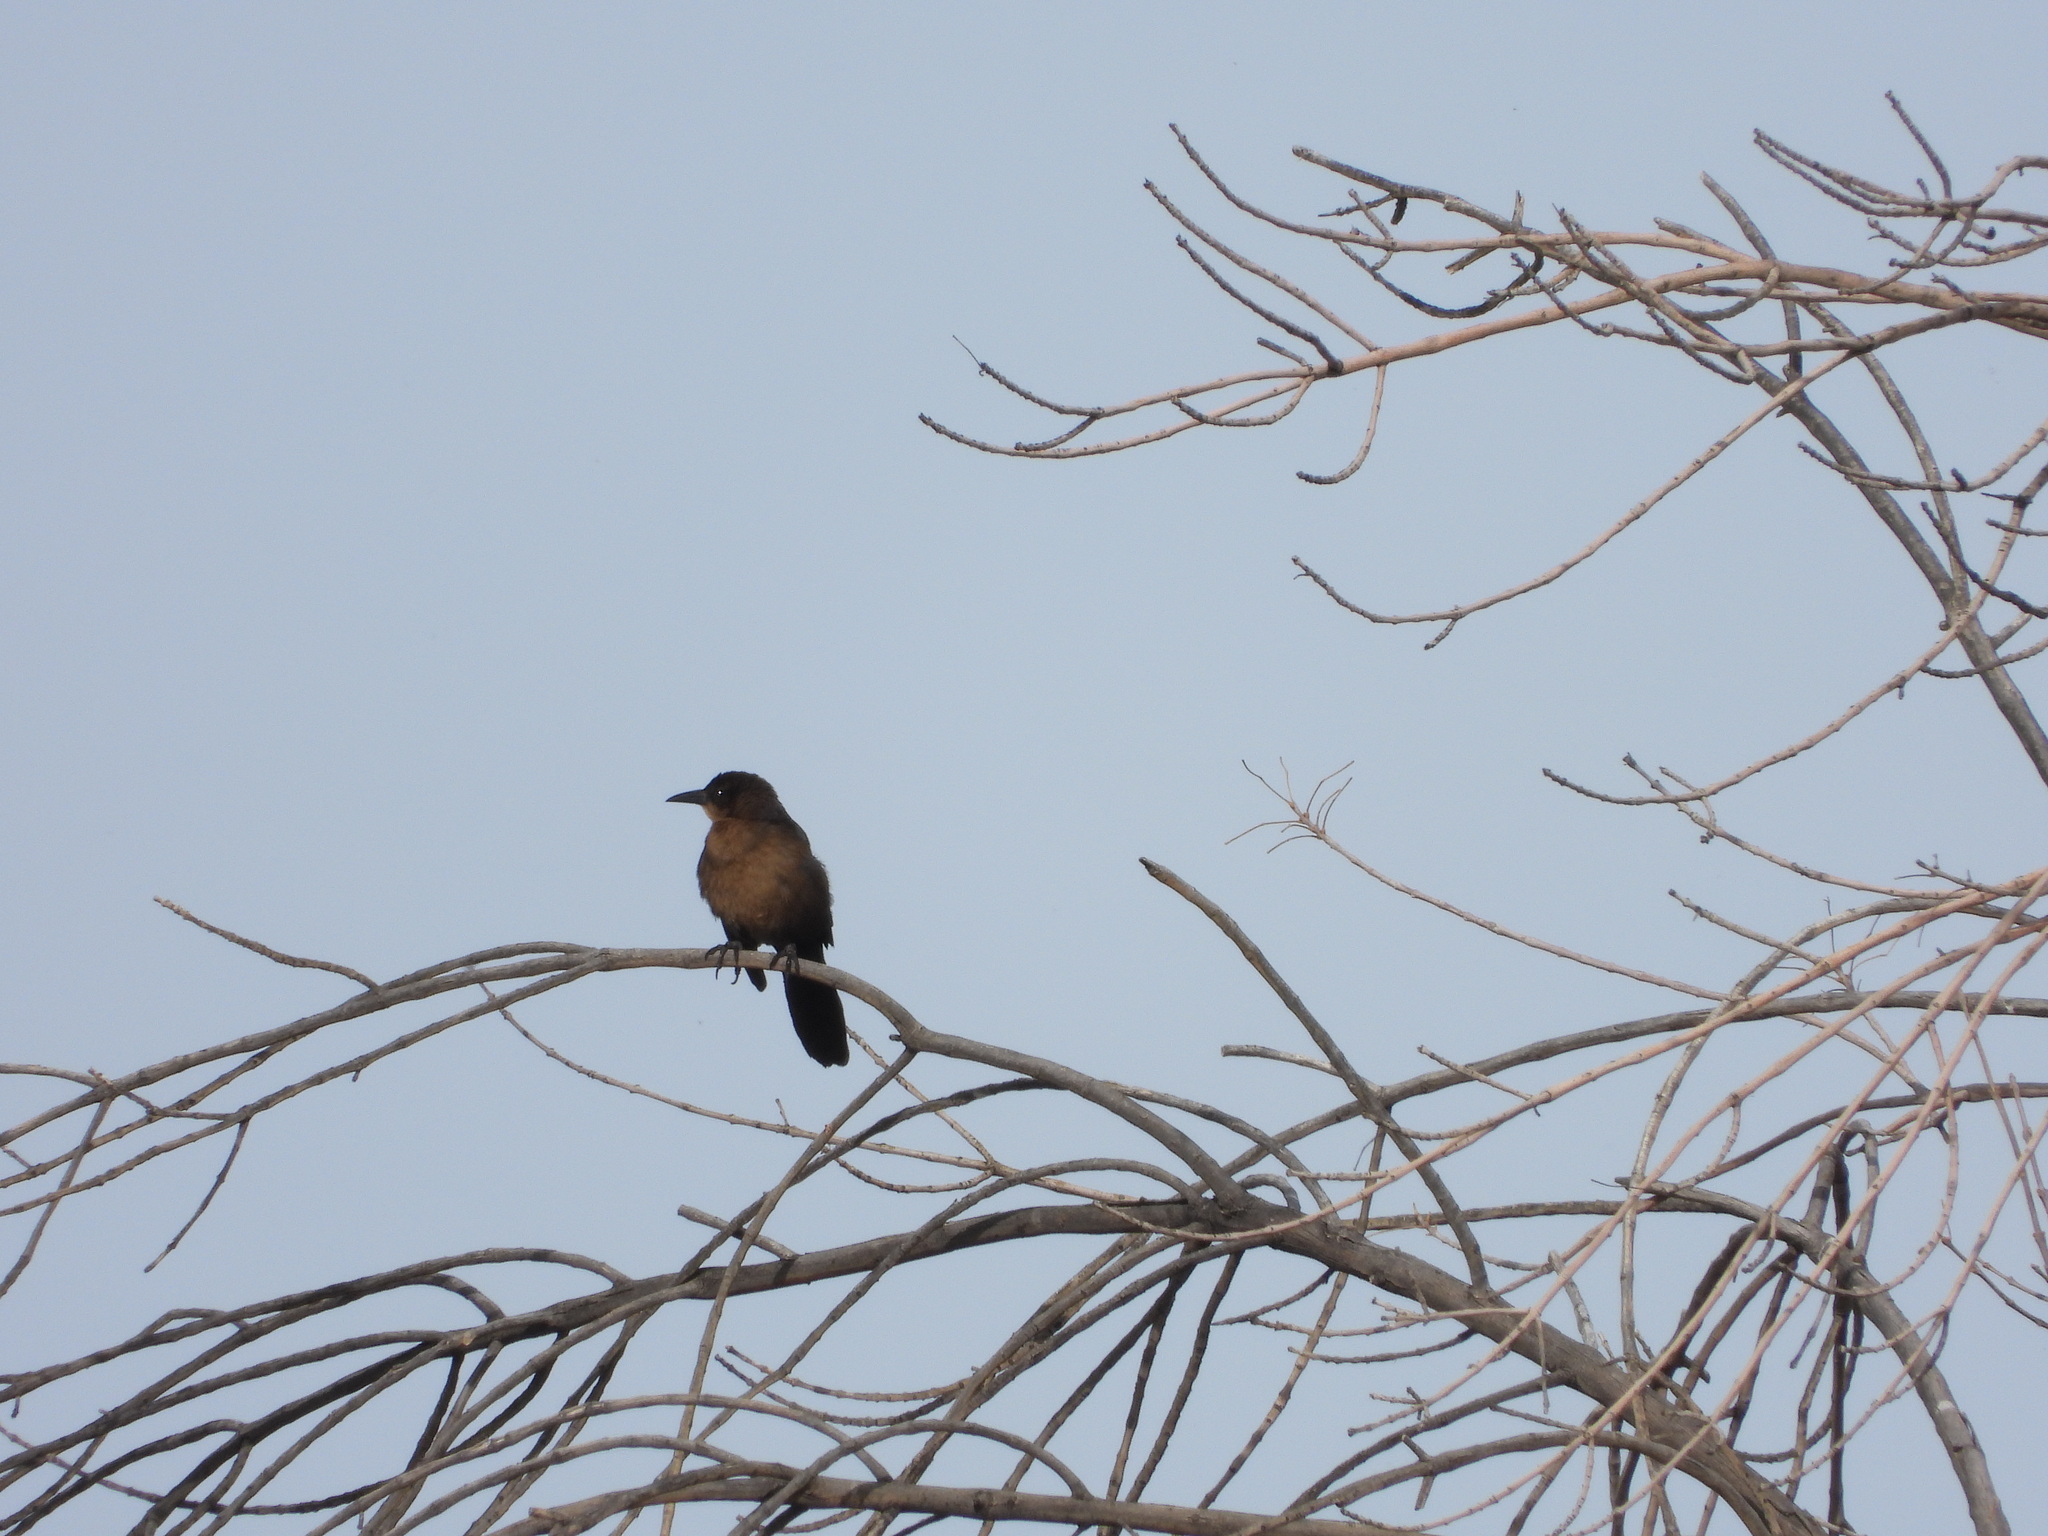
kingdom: Animalia
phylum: Chordata
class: Aves
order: Passeriformes
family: Icteridae
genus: Quiscalus
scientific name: Quiscalus mexicanus
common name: Great-tailed grackle
